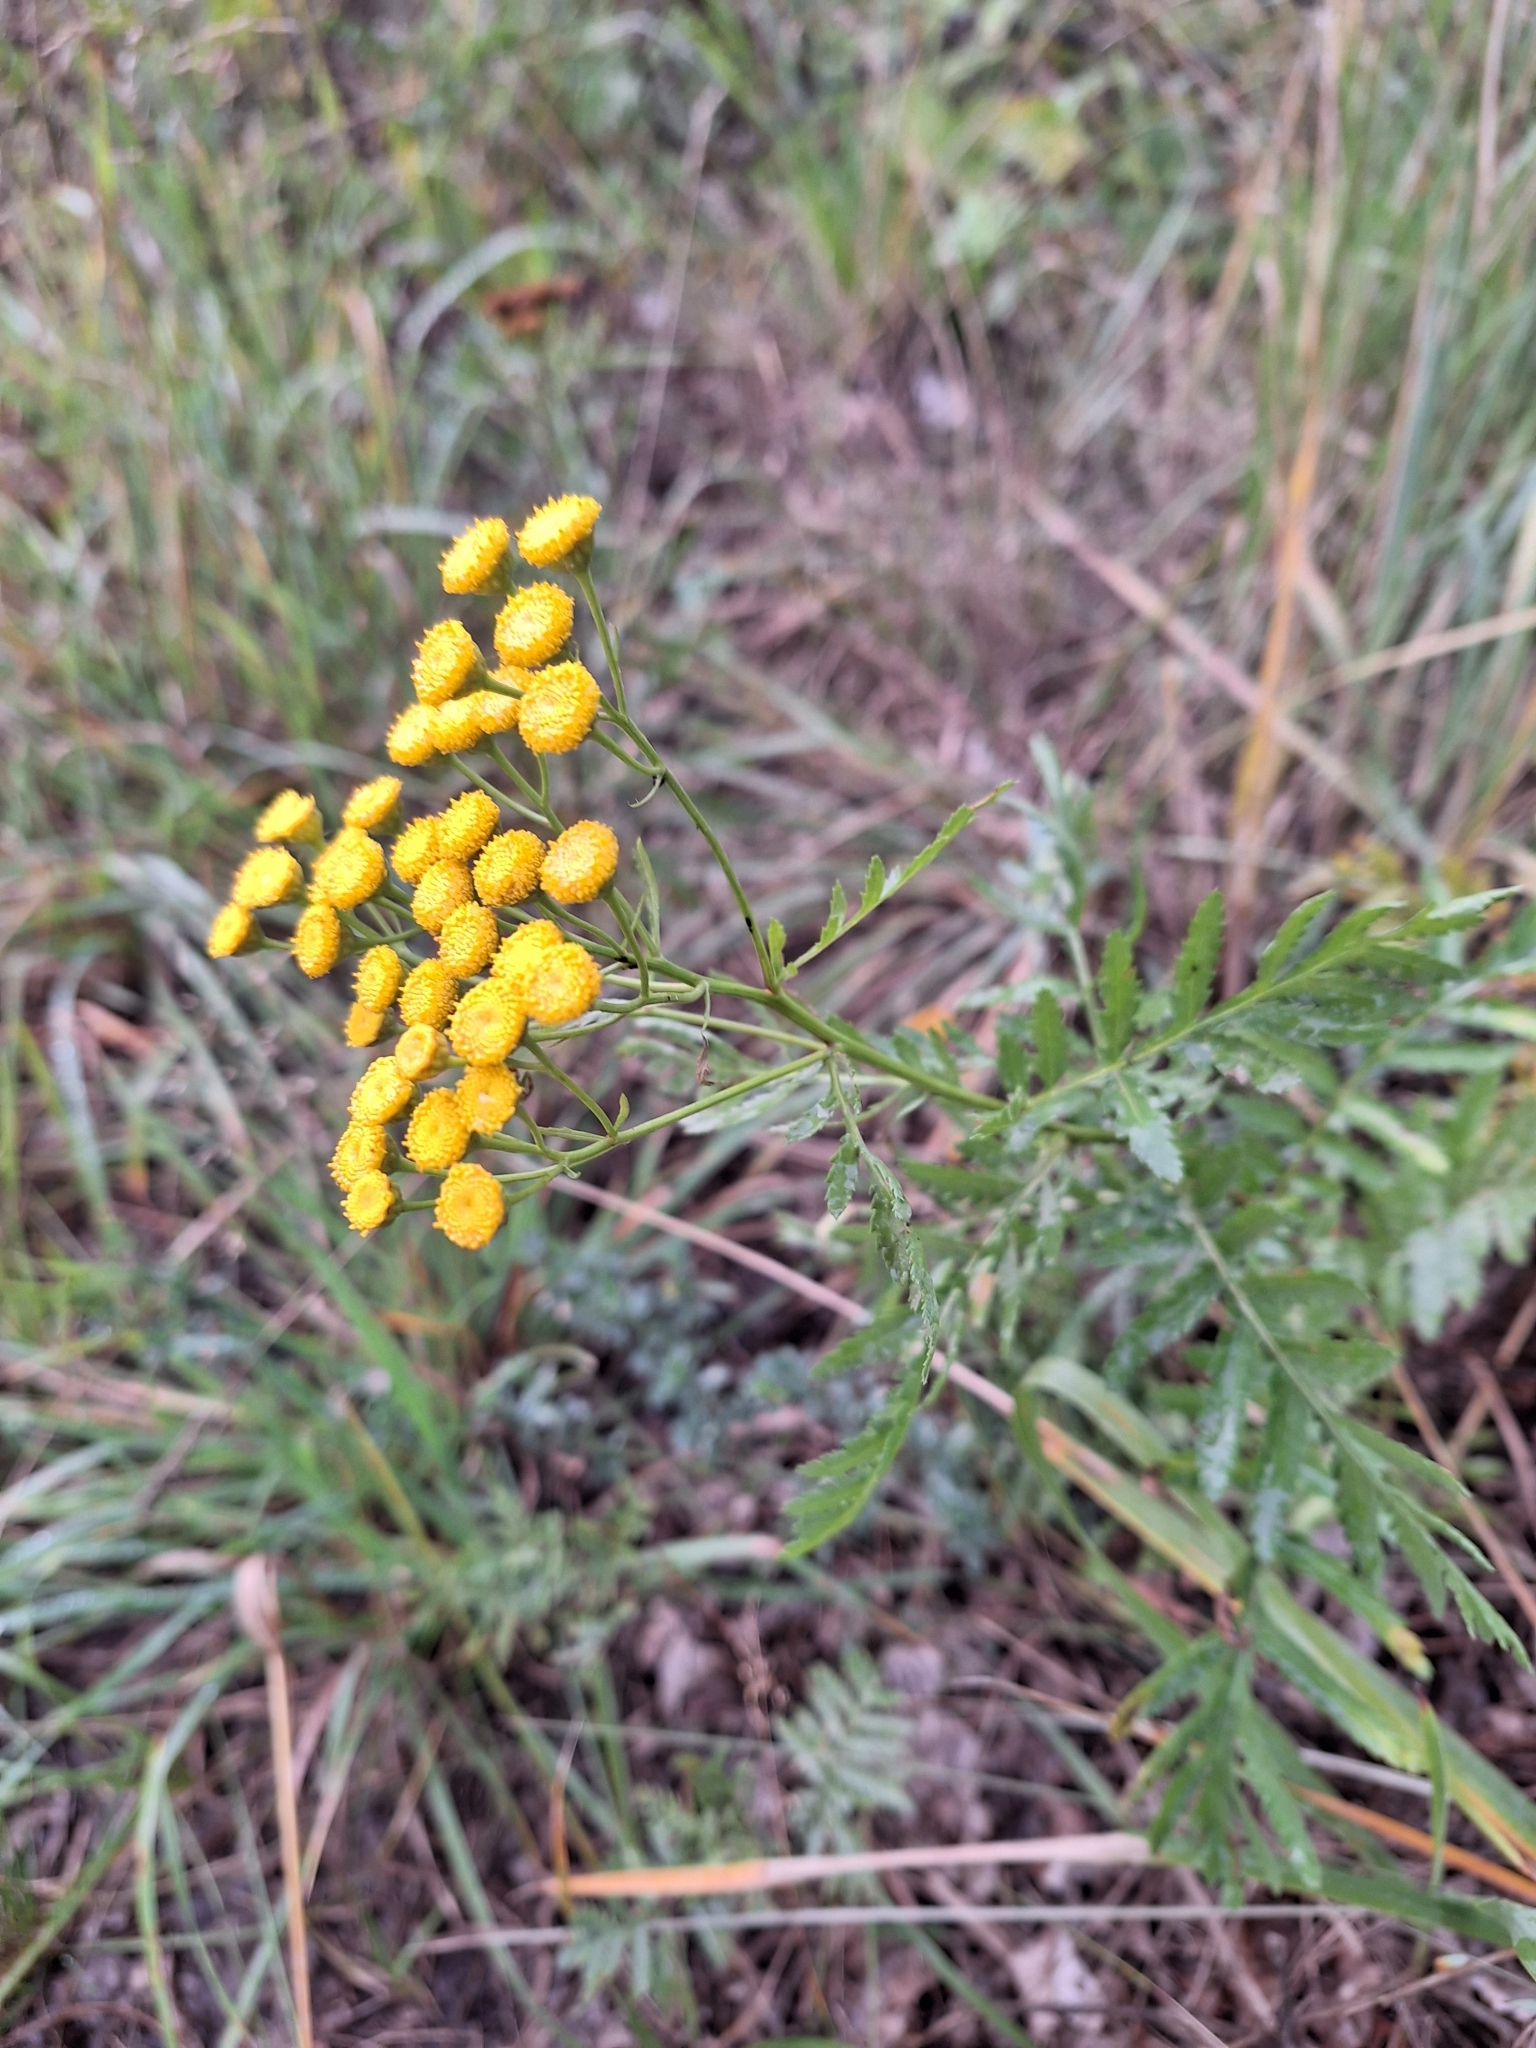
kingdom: Plantae
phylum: Tracheophyta
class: Magnoliopsida
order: Asterales
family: Asteraceae
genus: Tanacetum
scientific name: Tanacetum vulgare
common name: Common tansy
